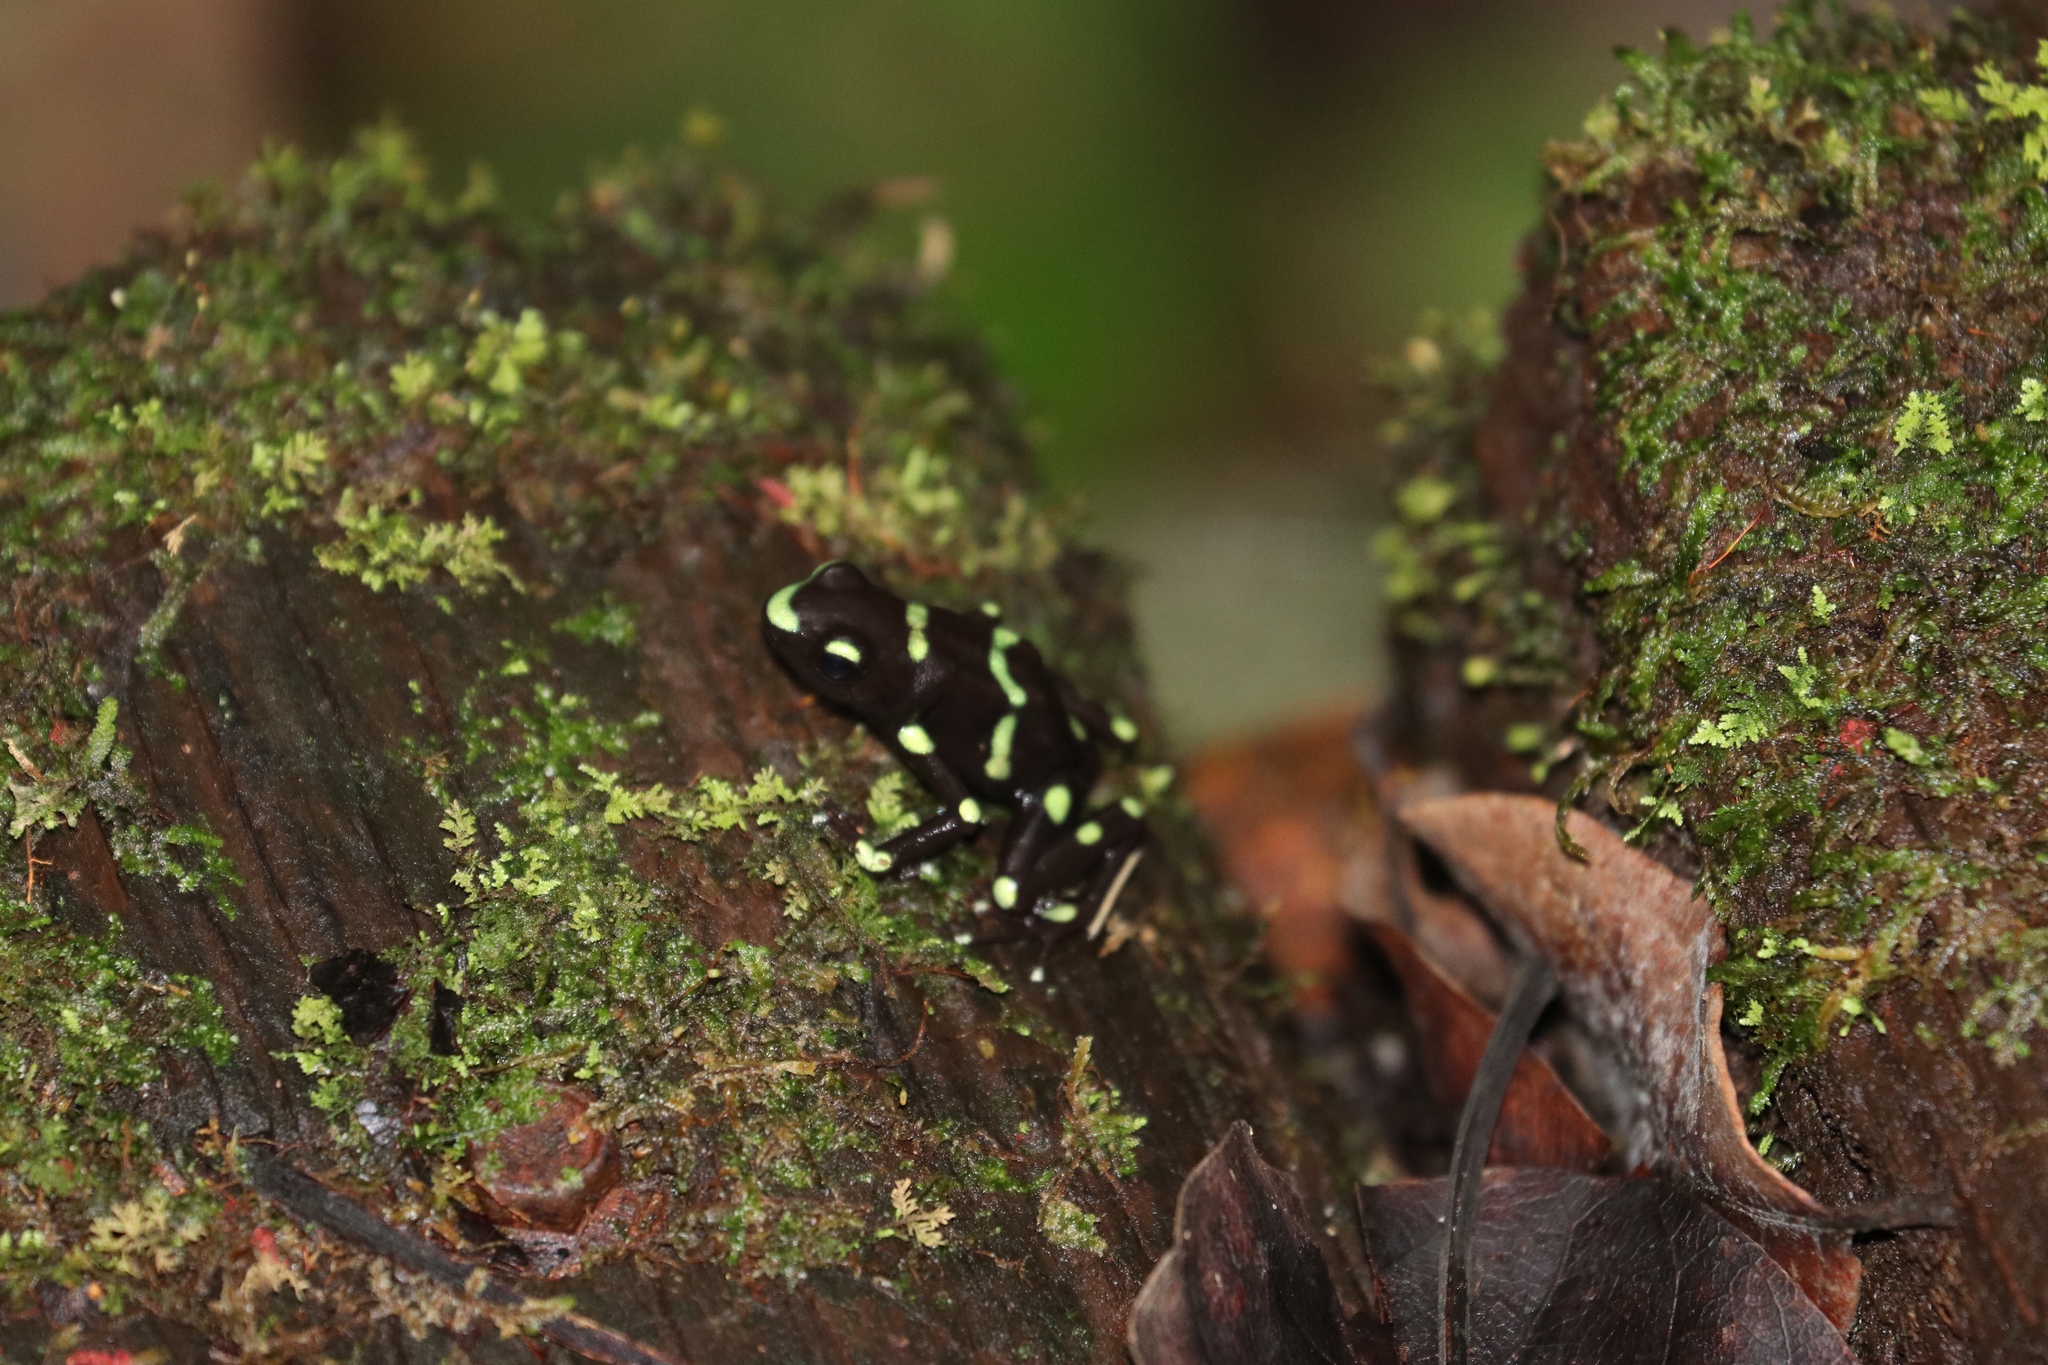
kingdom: Animalia
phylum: Chordata
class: Amphibia
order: Anura
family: Dendrobatidae
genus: Dendrobates
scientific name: Dendrobates auratus
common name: Green and black poison dart frog
